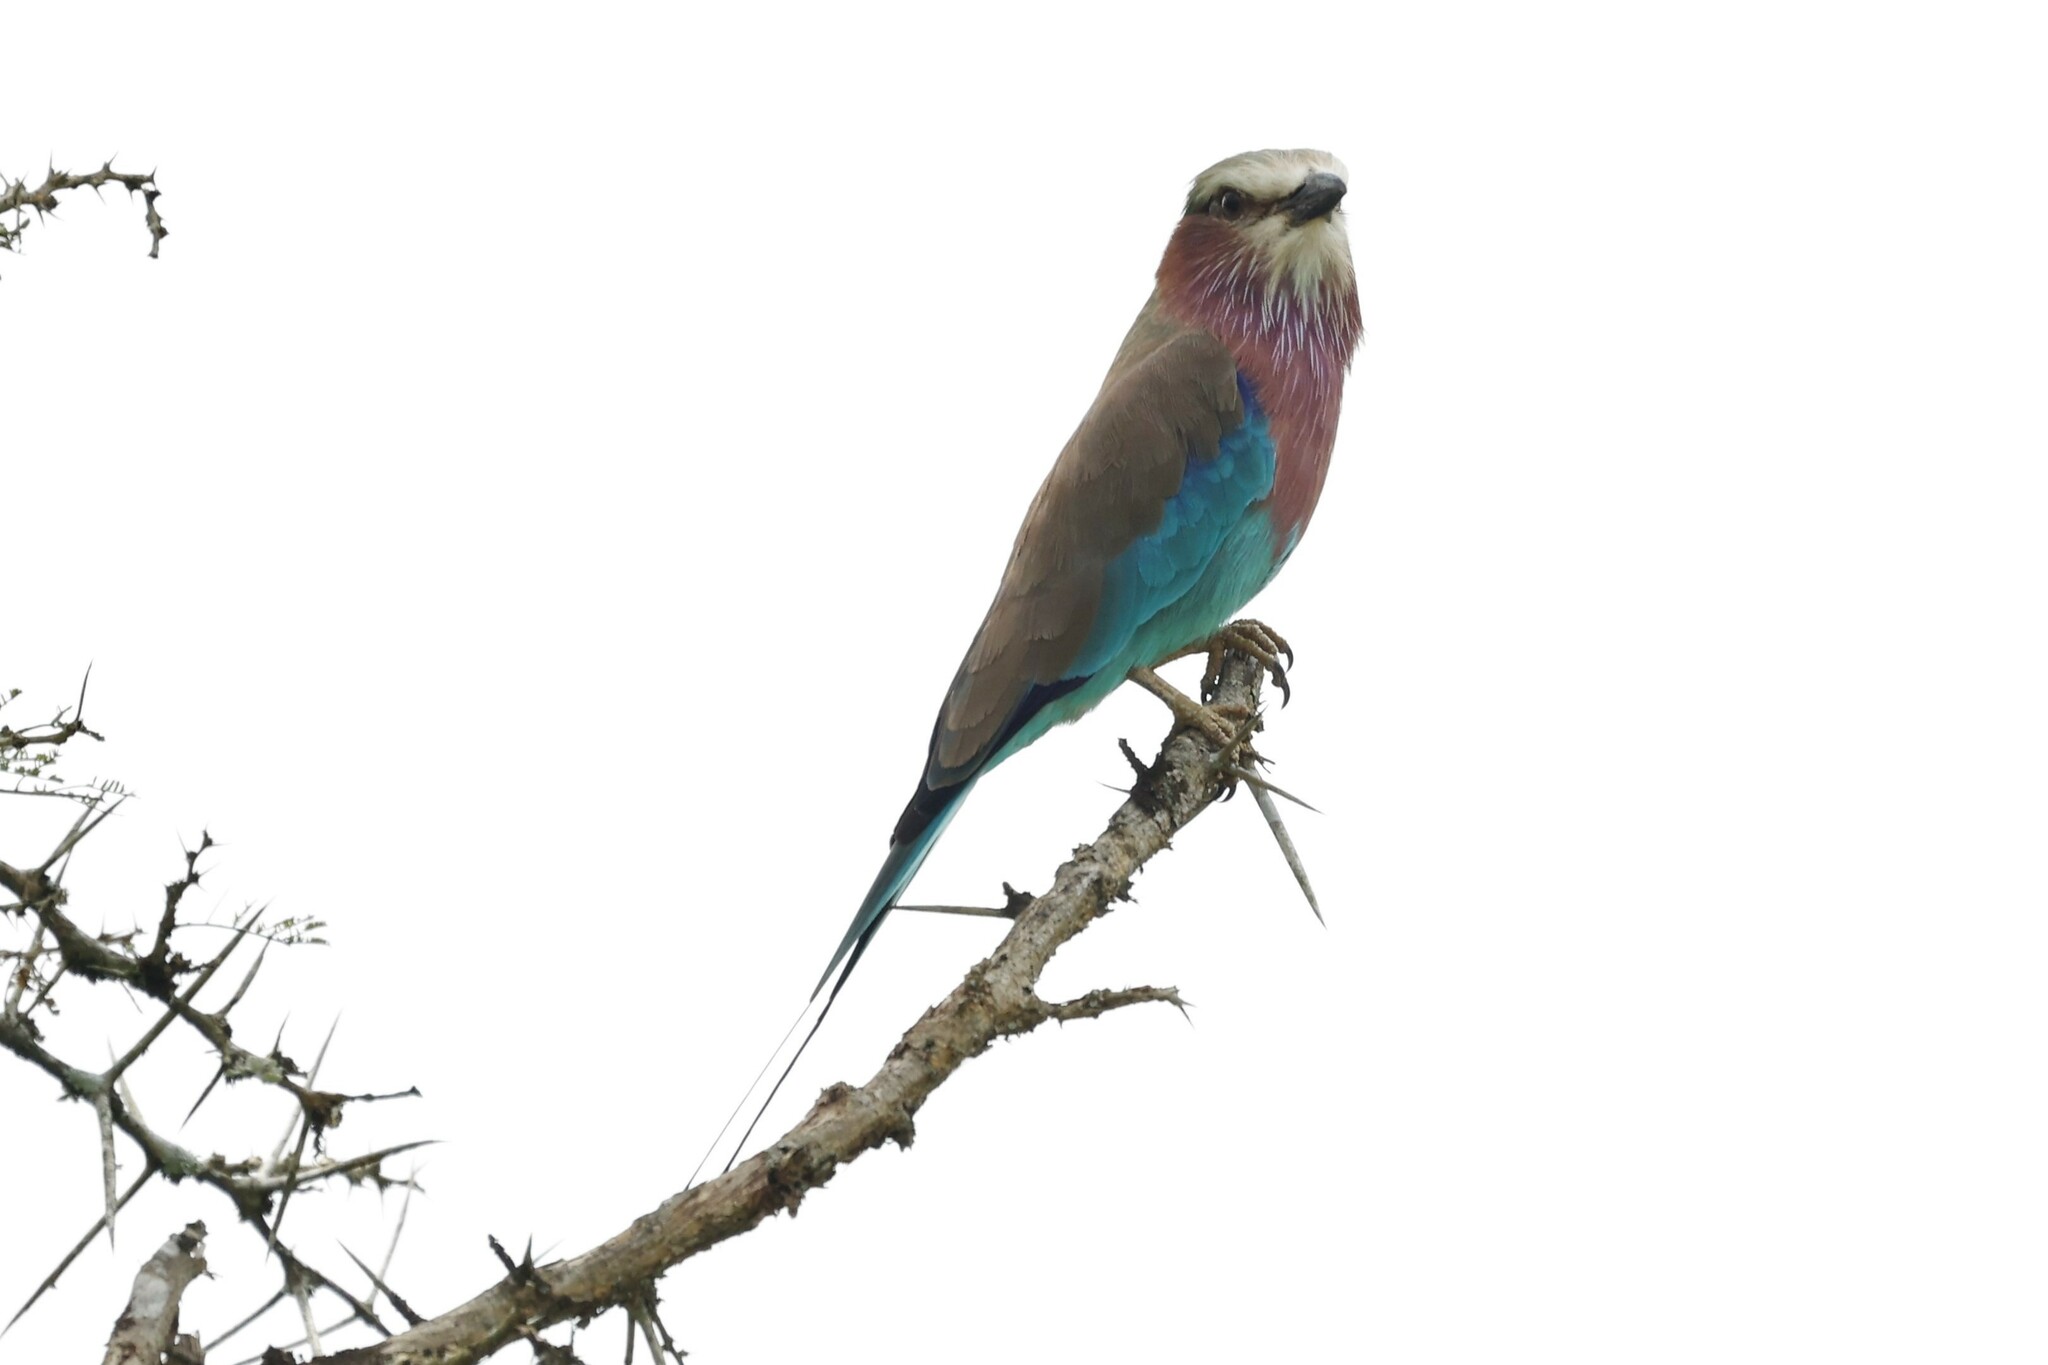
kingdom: Animalia
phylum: Chordata
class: Aves
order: Coraciiformes
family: Coraciidae
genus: Coracias
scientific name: Coracias caudatus
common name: Lilac-breasted roller
